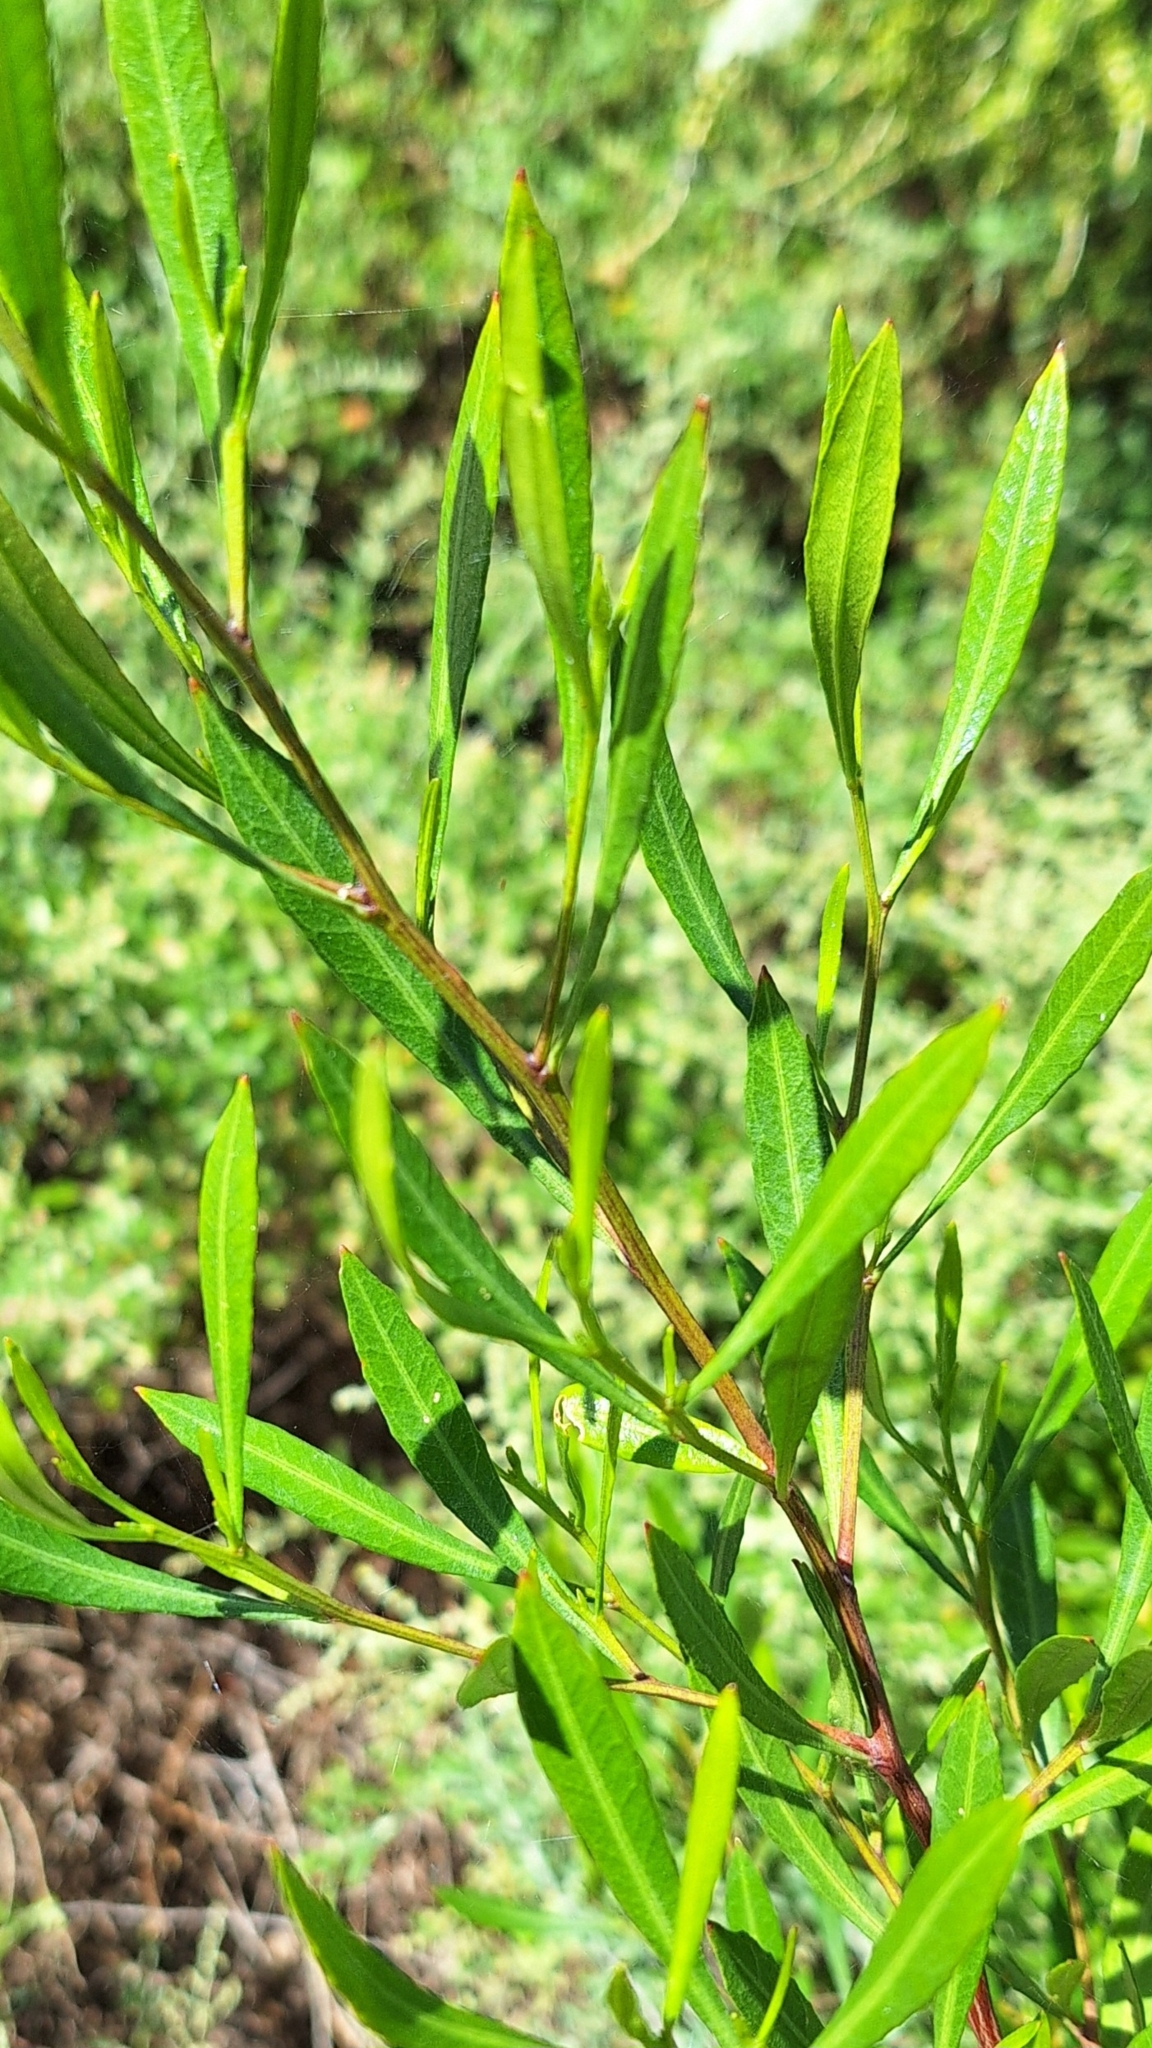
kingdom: Plantae
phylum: Tracheophyta
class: Magnoliopsida
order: Sapindales
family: Sapindaceae
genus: Dodonaea
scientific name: Dodonaea viscosa
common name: Hopbush
